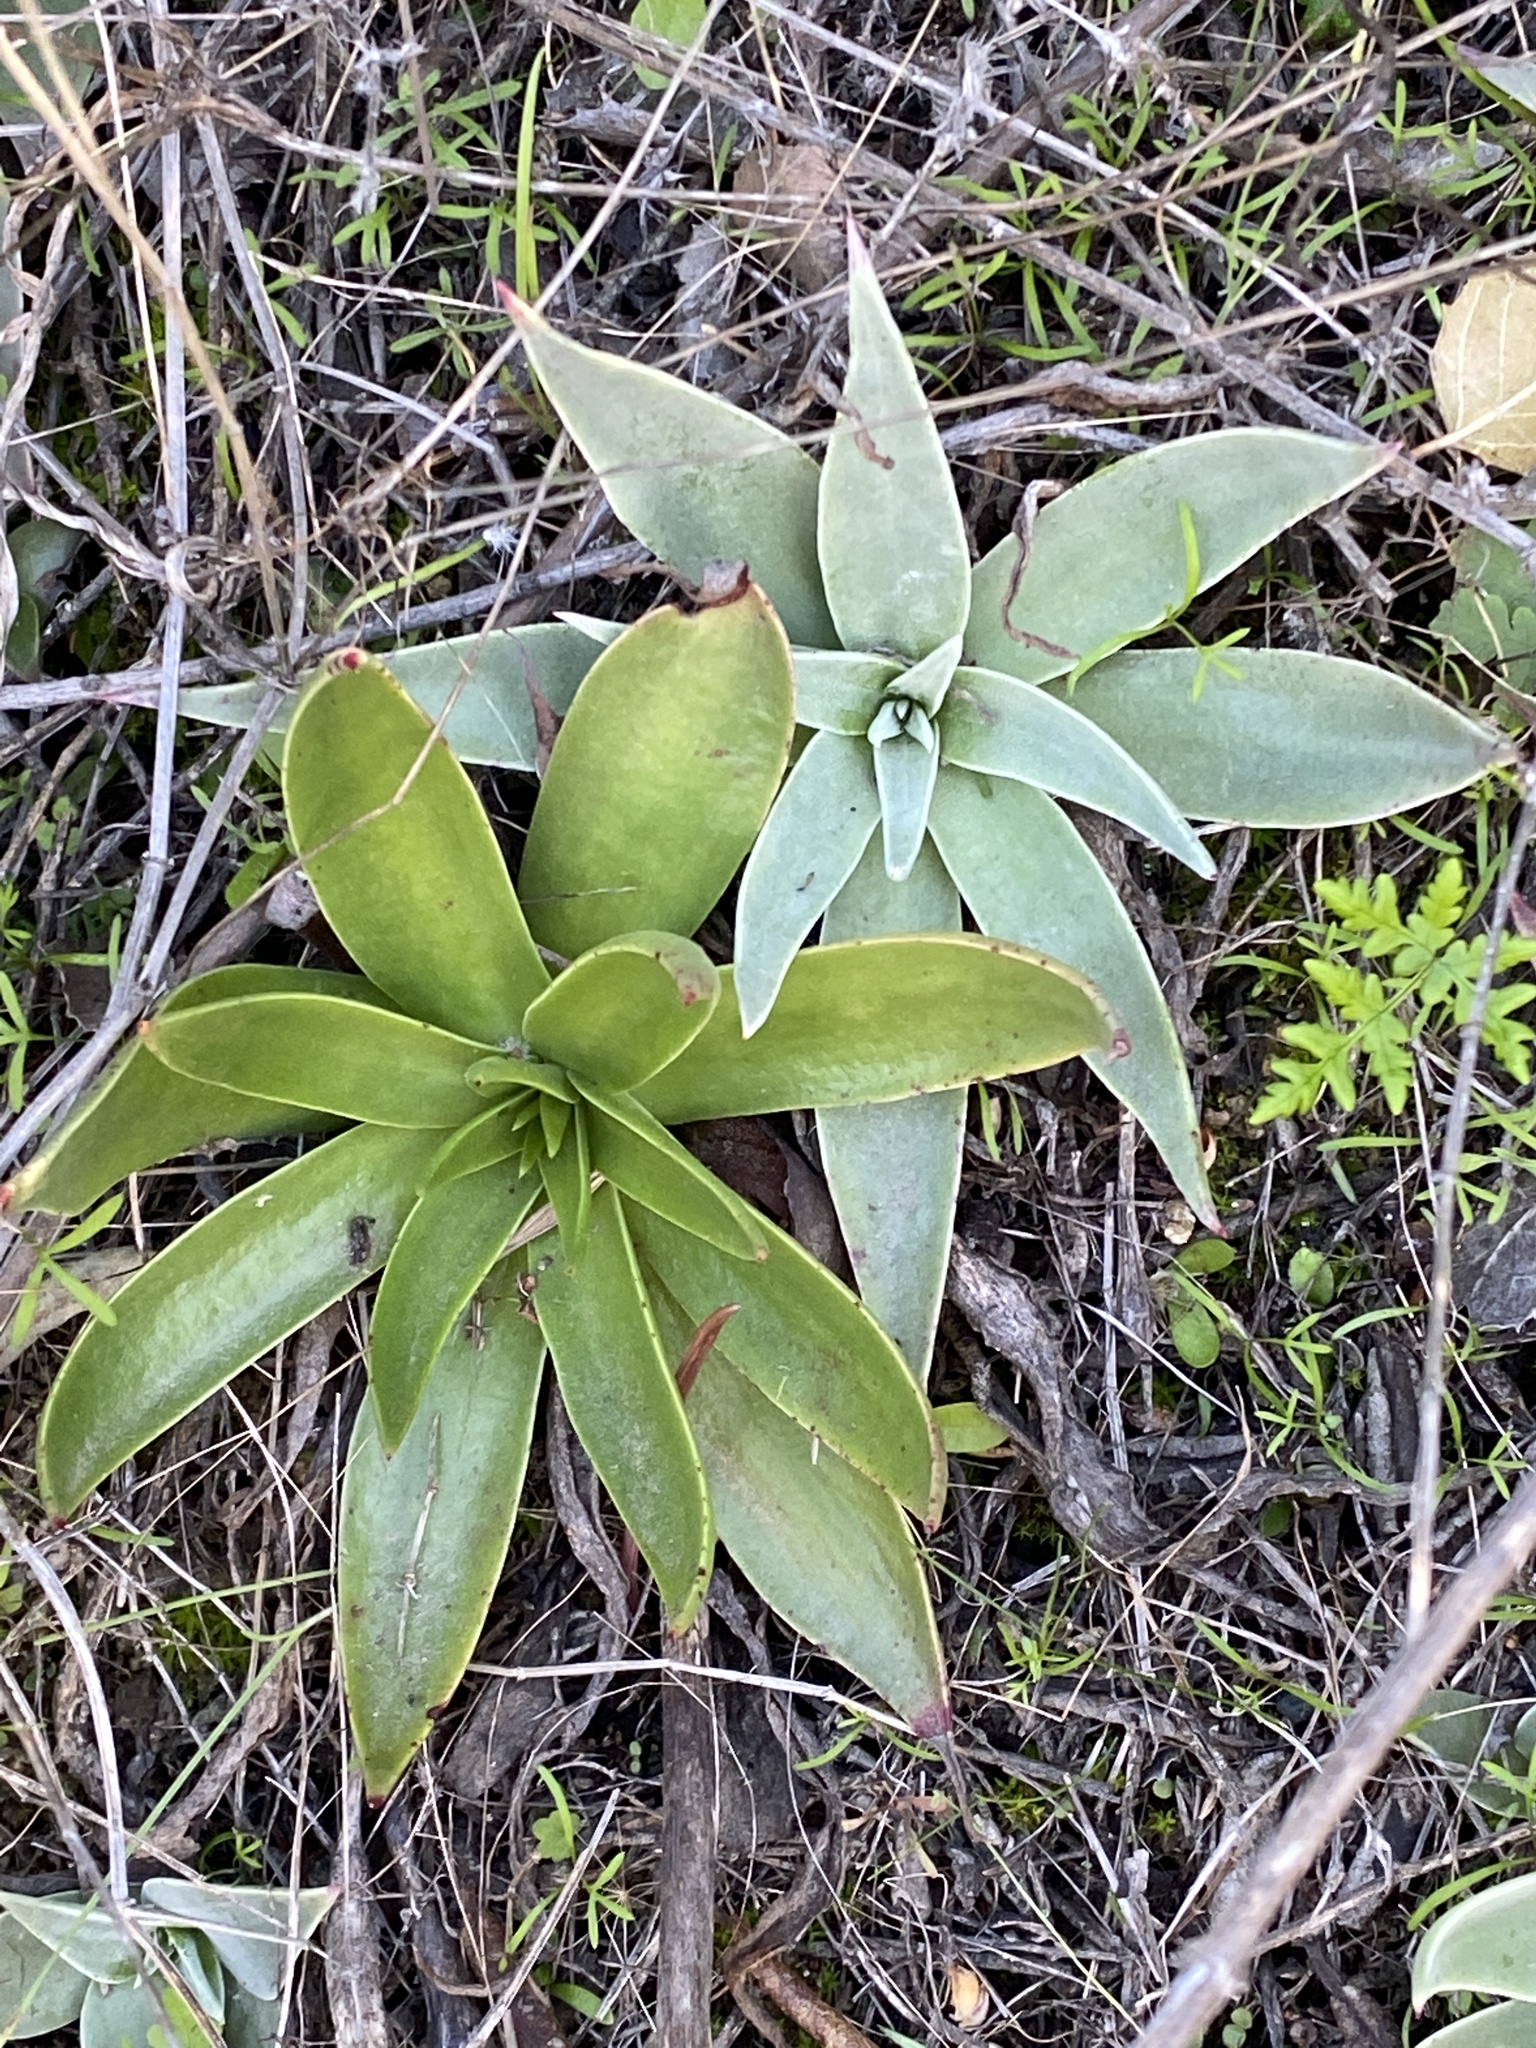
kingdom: Plantae
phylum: Tracheophyta
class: Magnoliopsida
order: Saxifragales
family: Crassulaceae
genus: Dudleya
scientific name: Dudleya lanceolata
